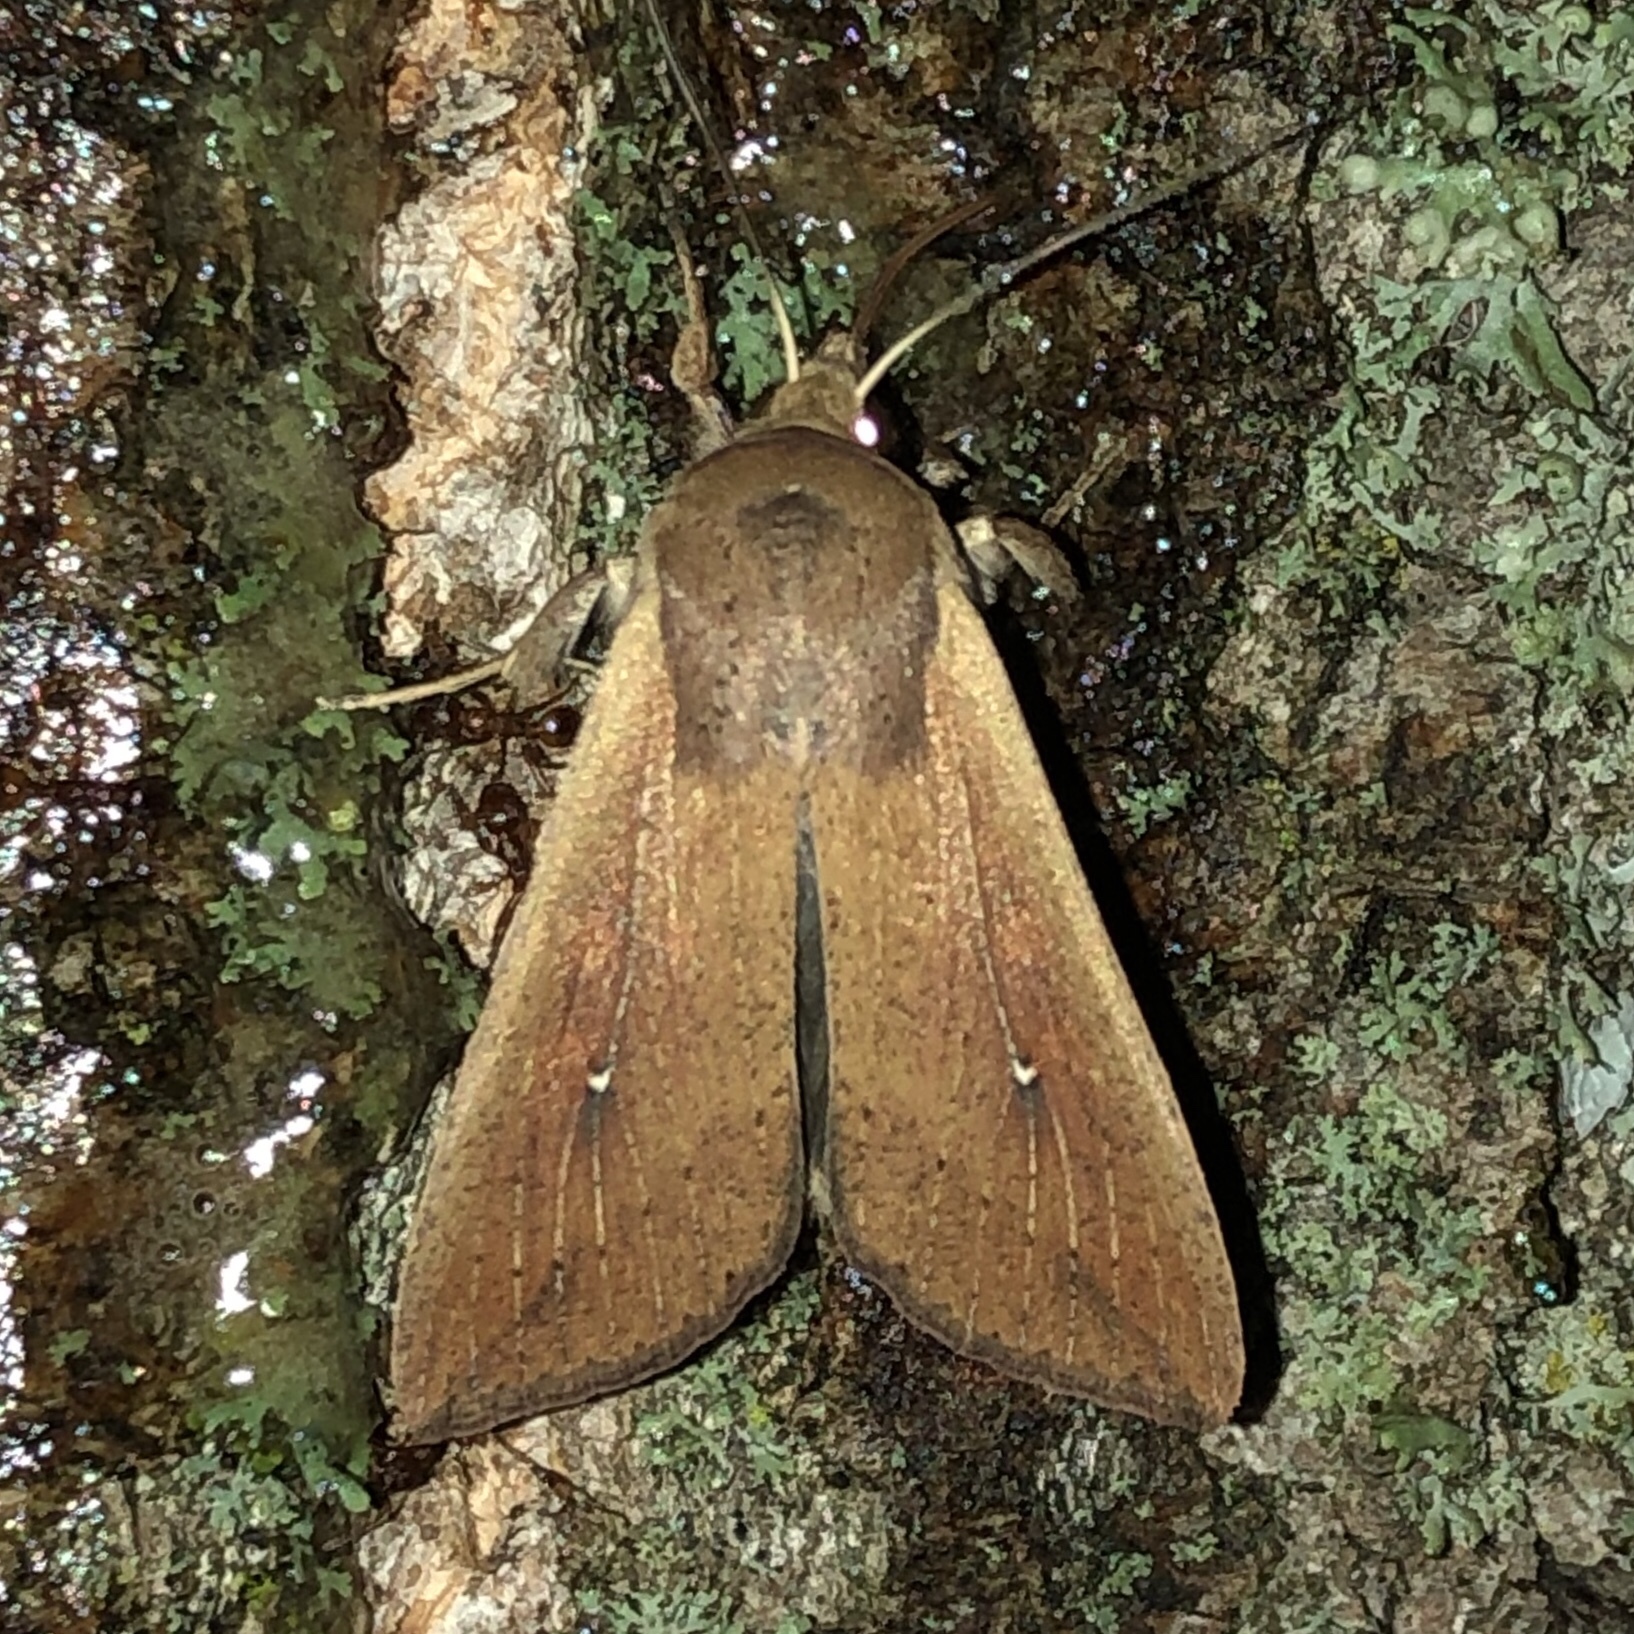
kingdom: Animalia
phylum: Arthropoda
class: Insecta
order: Lepidoptera
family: Noctuidae
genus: Mythimna
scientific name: Mythimna unipuncta
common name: White-speck
